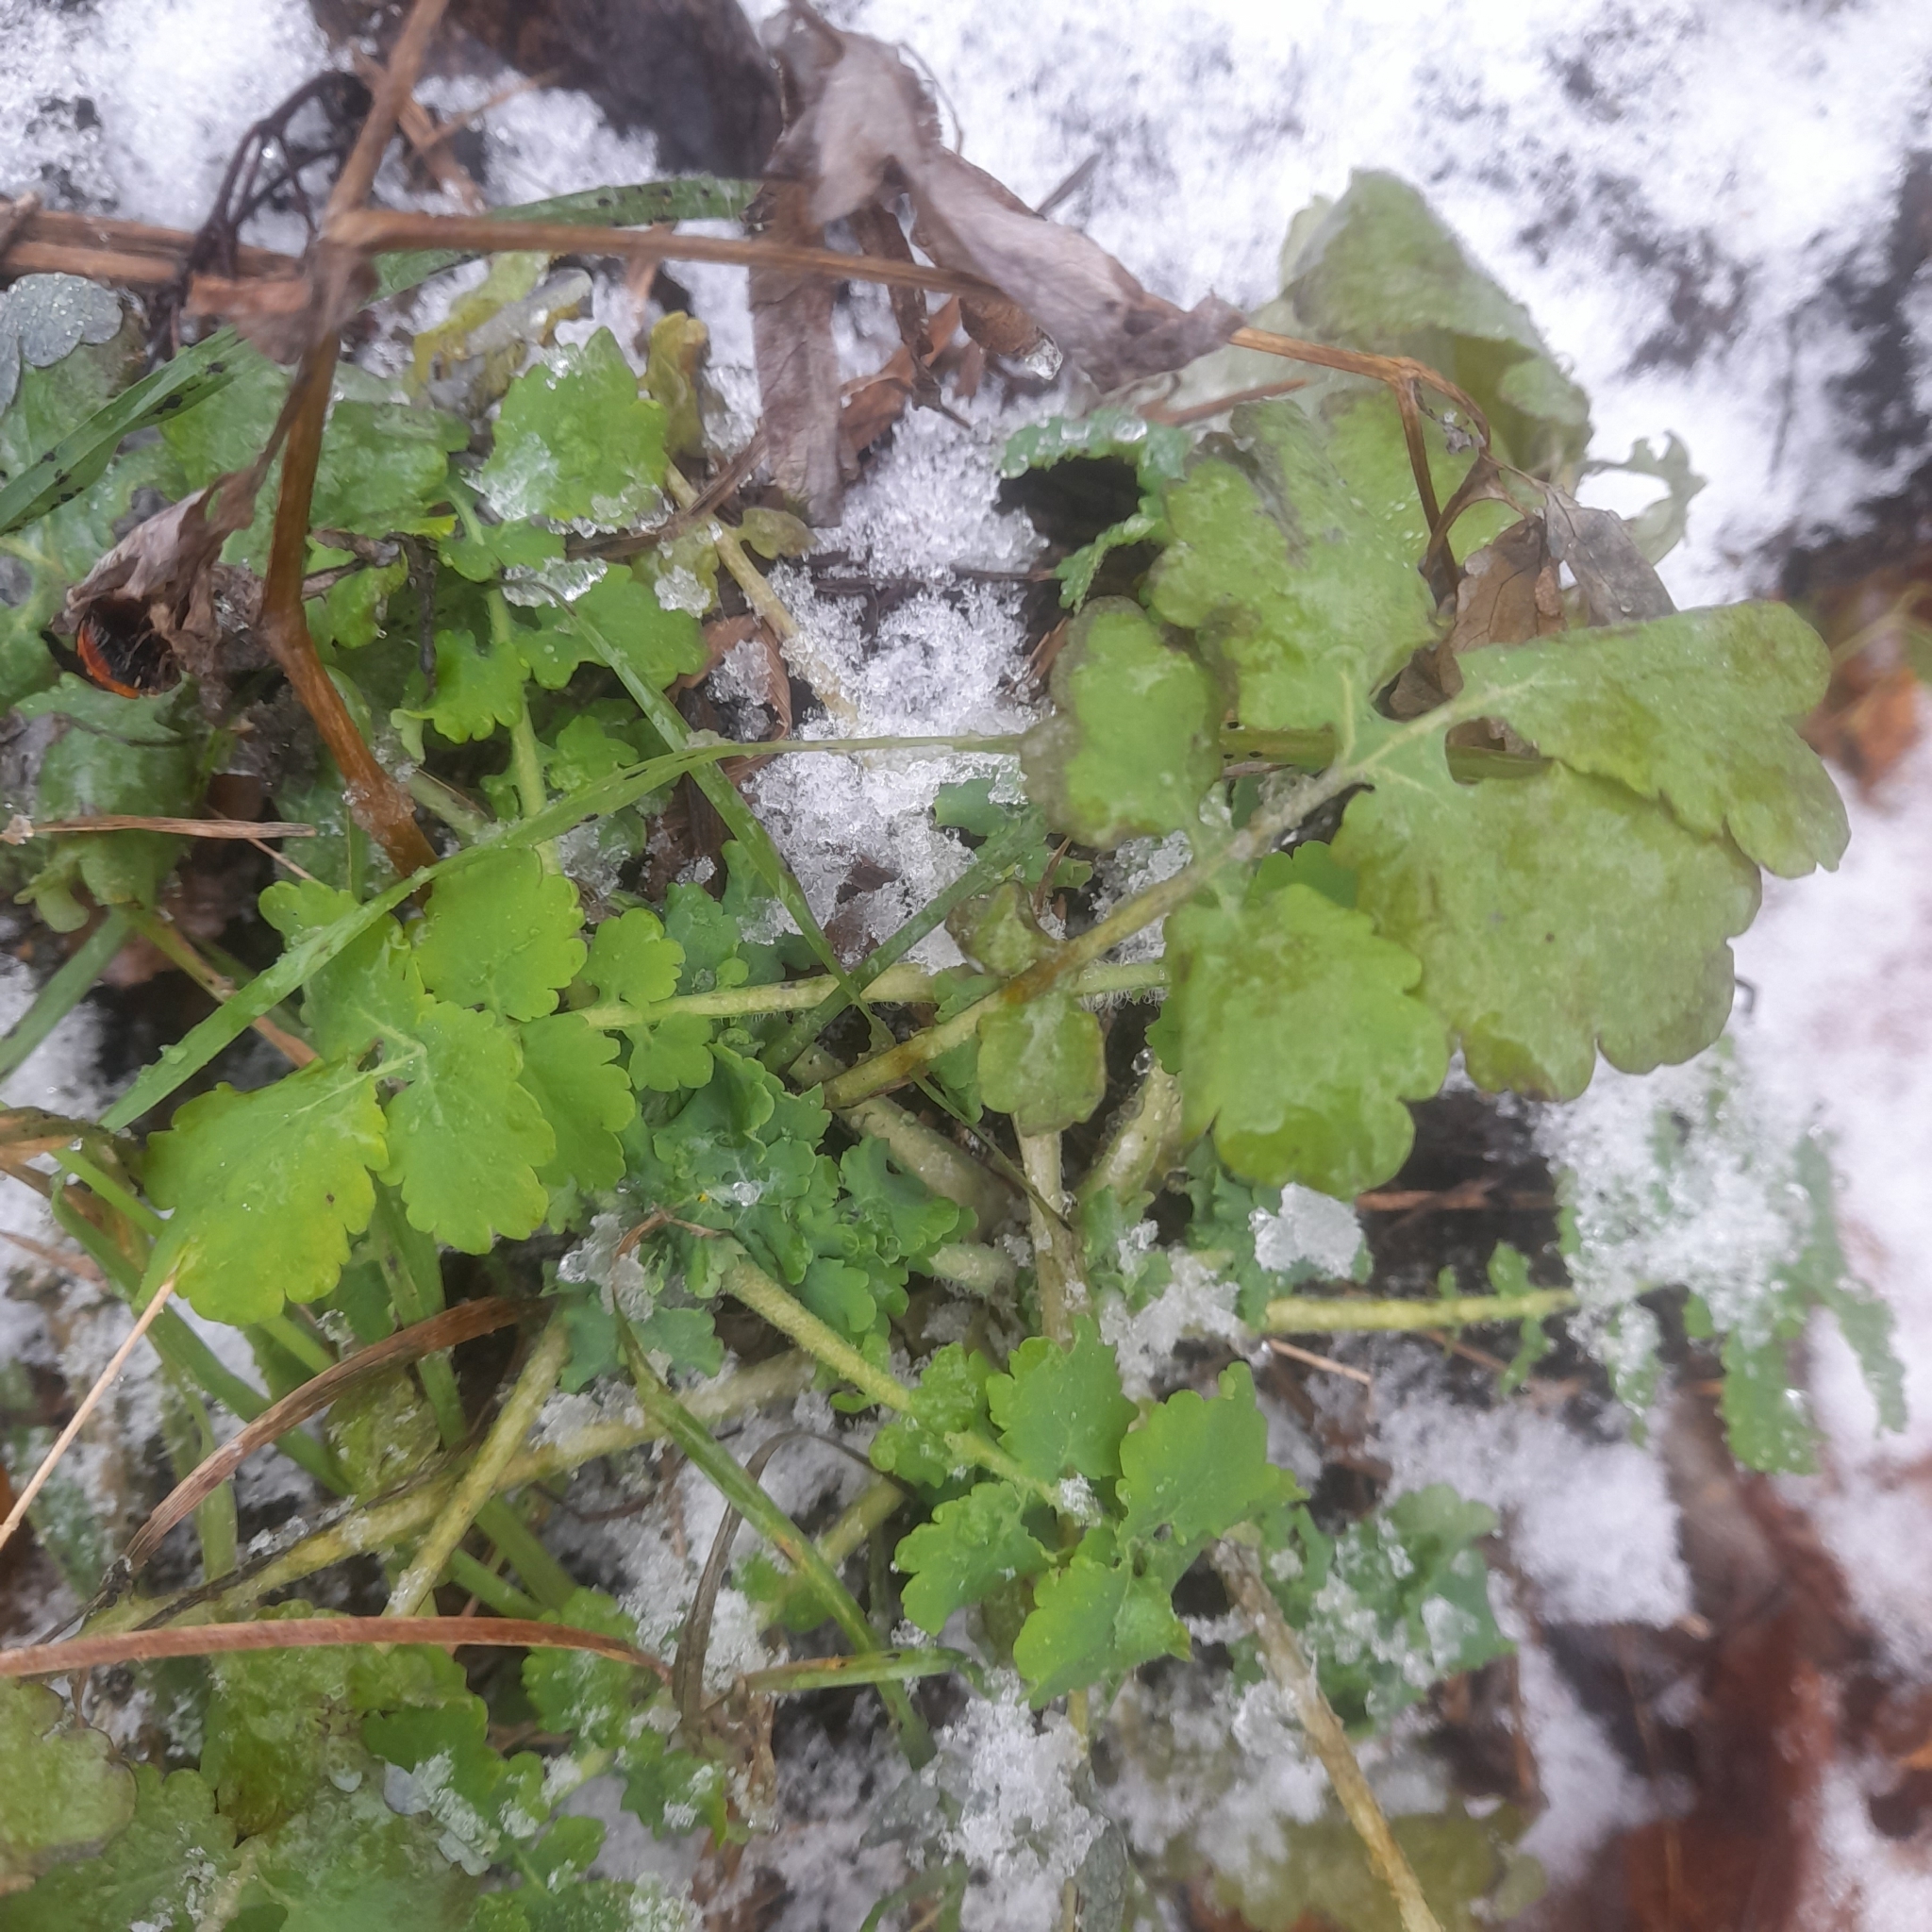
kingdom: Plantae
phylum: Tracheophyta
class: Magnoliopsida
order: Ranunculales
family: Papaveraceae
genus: Chelidonium
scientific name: Chelidonium majus
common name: Greater celandine
